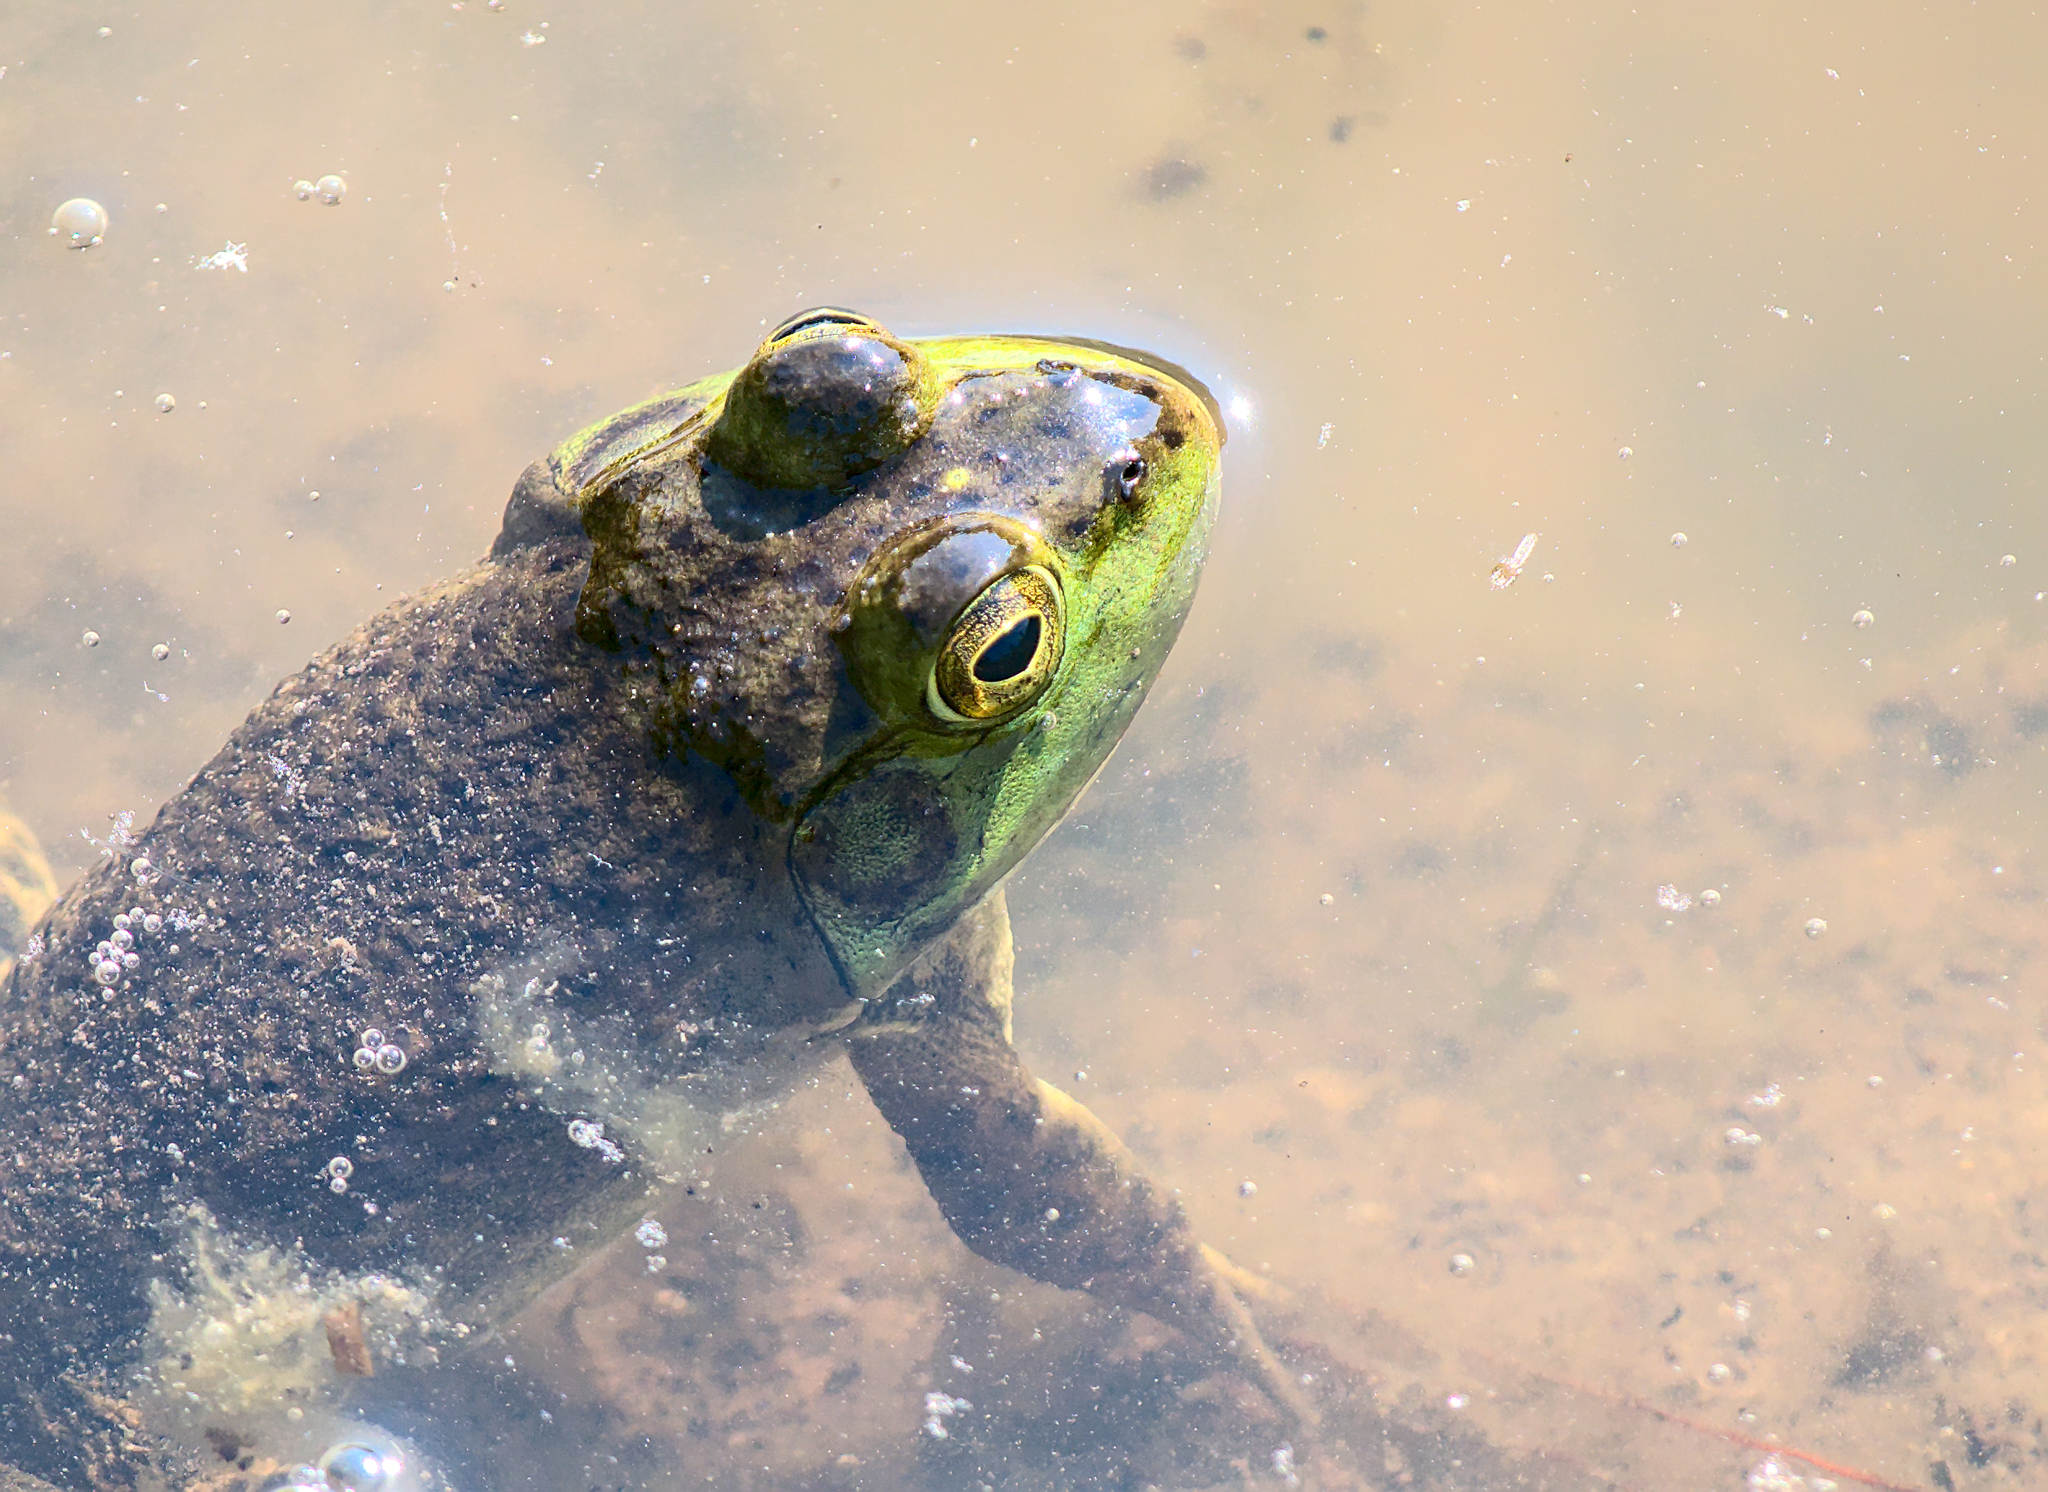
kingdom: Animalia
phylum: Chordata
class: Amphibia
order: Anura
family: Ranidae
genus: Lithobates
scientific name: Lithobates catesbeianus
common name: American bullfrog
